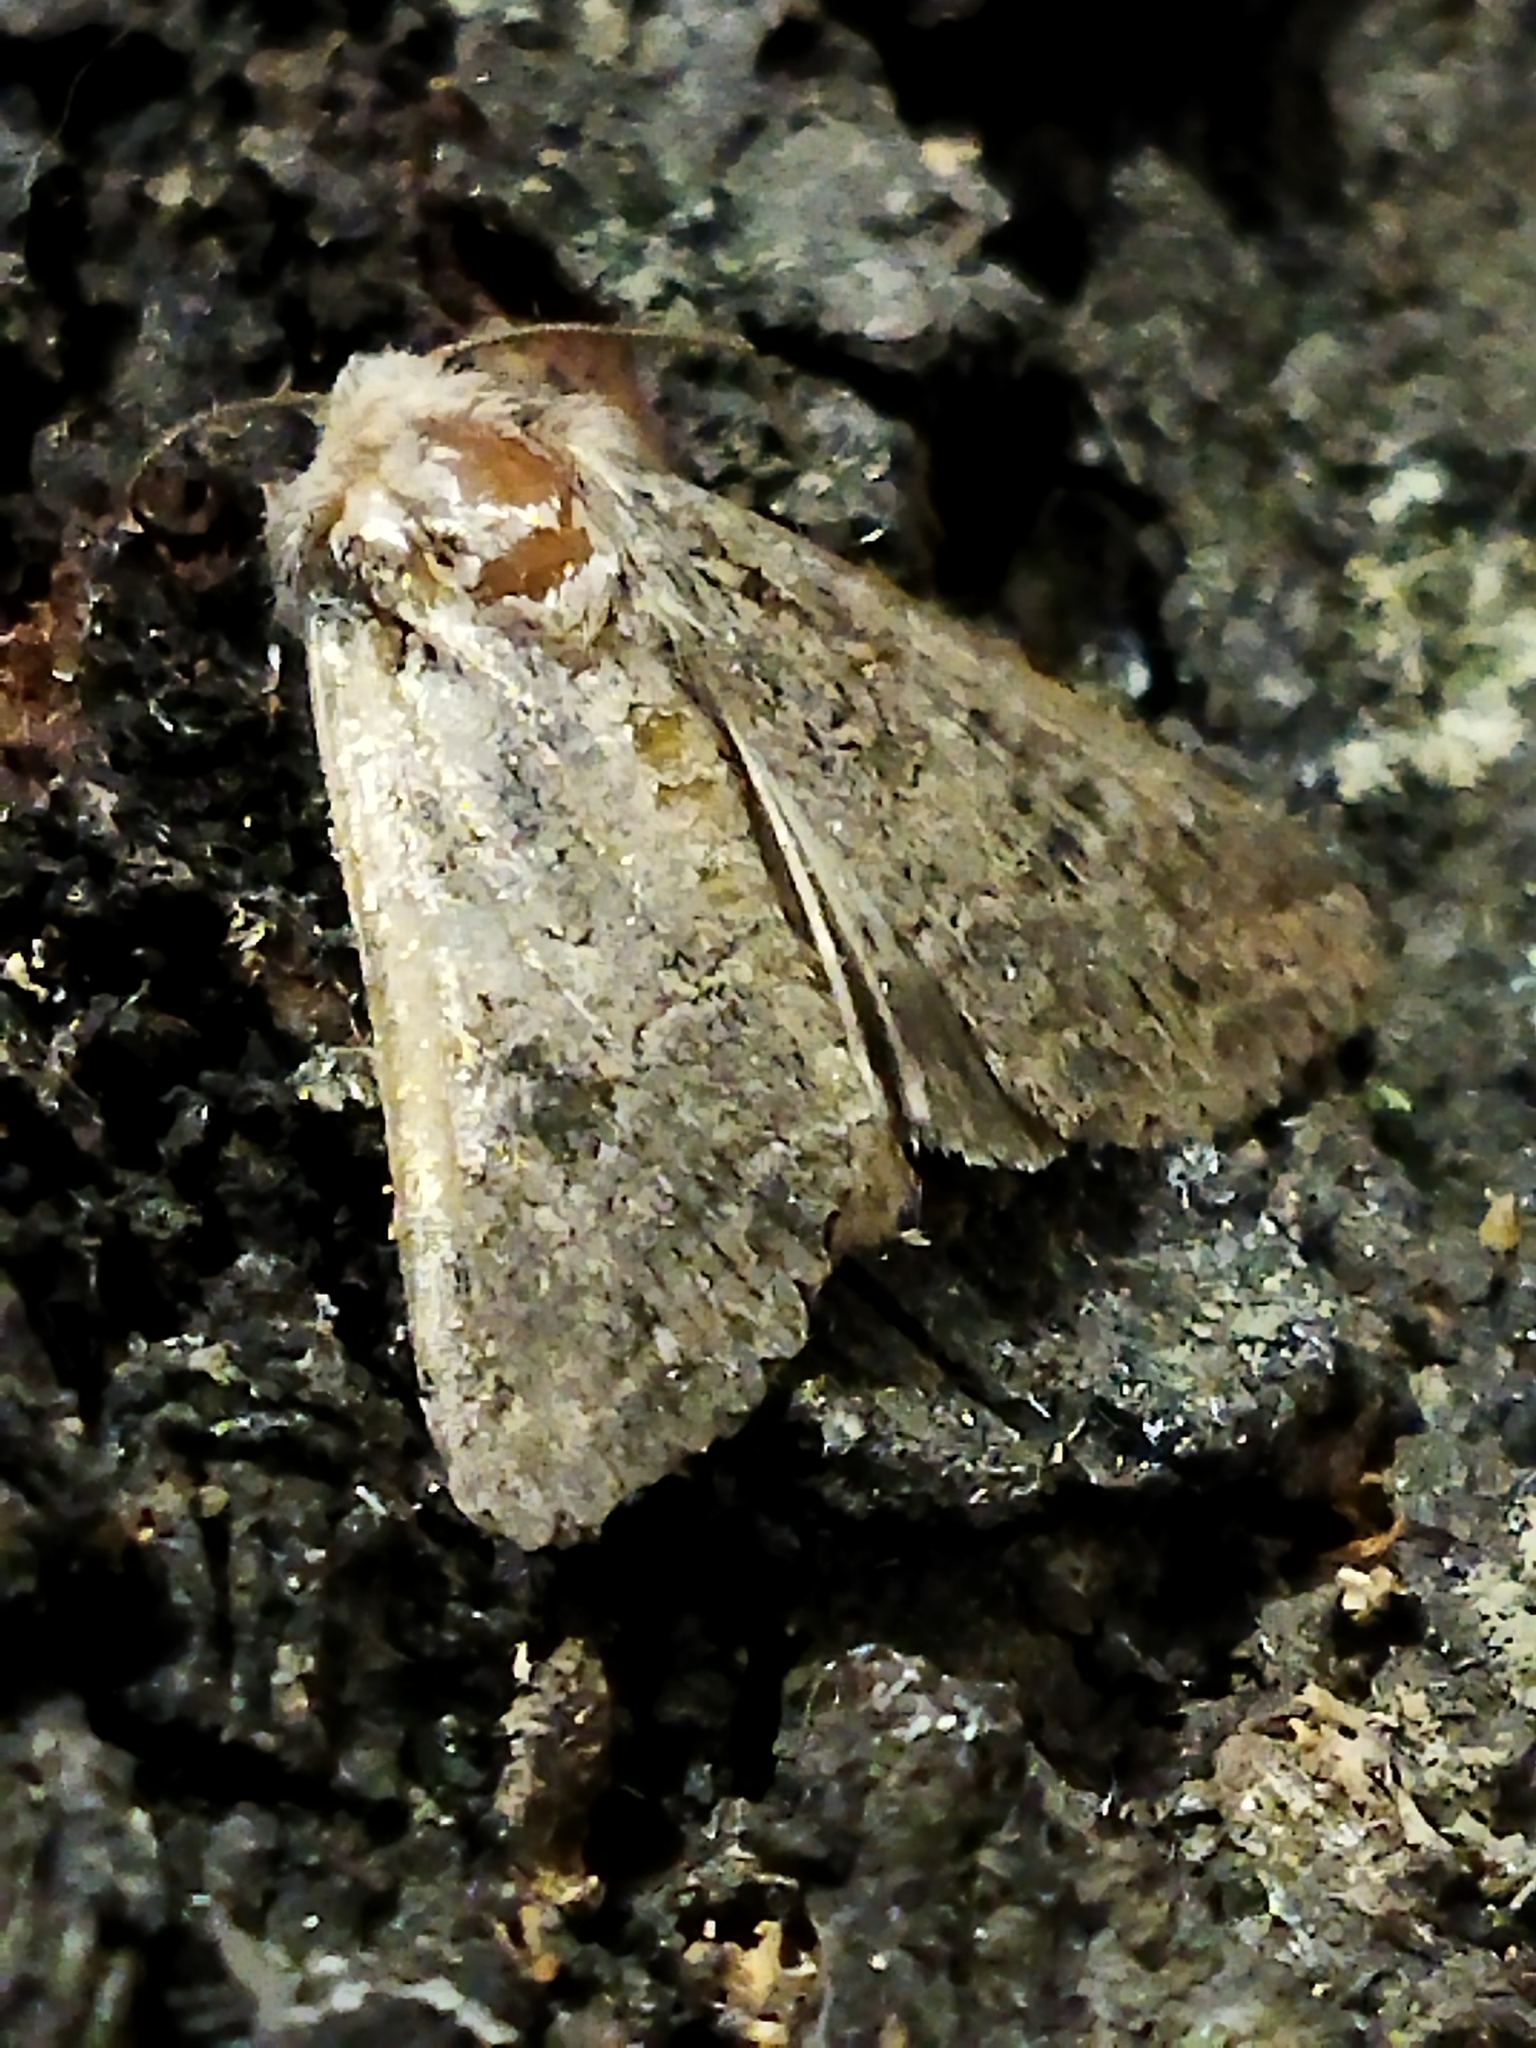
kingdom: Animalia
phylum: Arthropoda
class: Insecta
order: Lepidoptera
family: Noctuidae
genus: Anarta
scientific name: Anarta trifolii
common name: Clover cutworm moth
